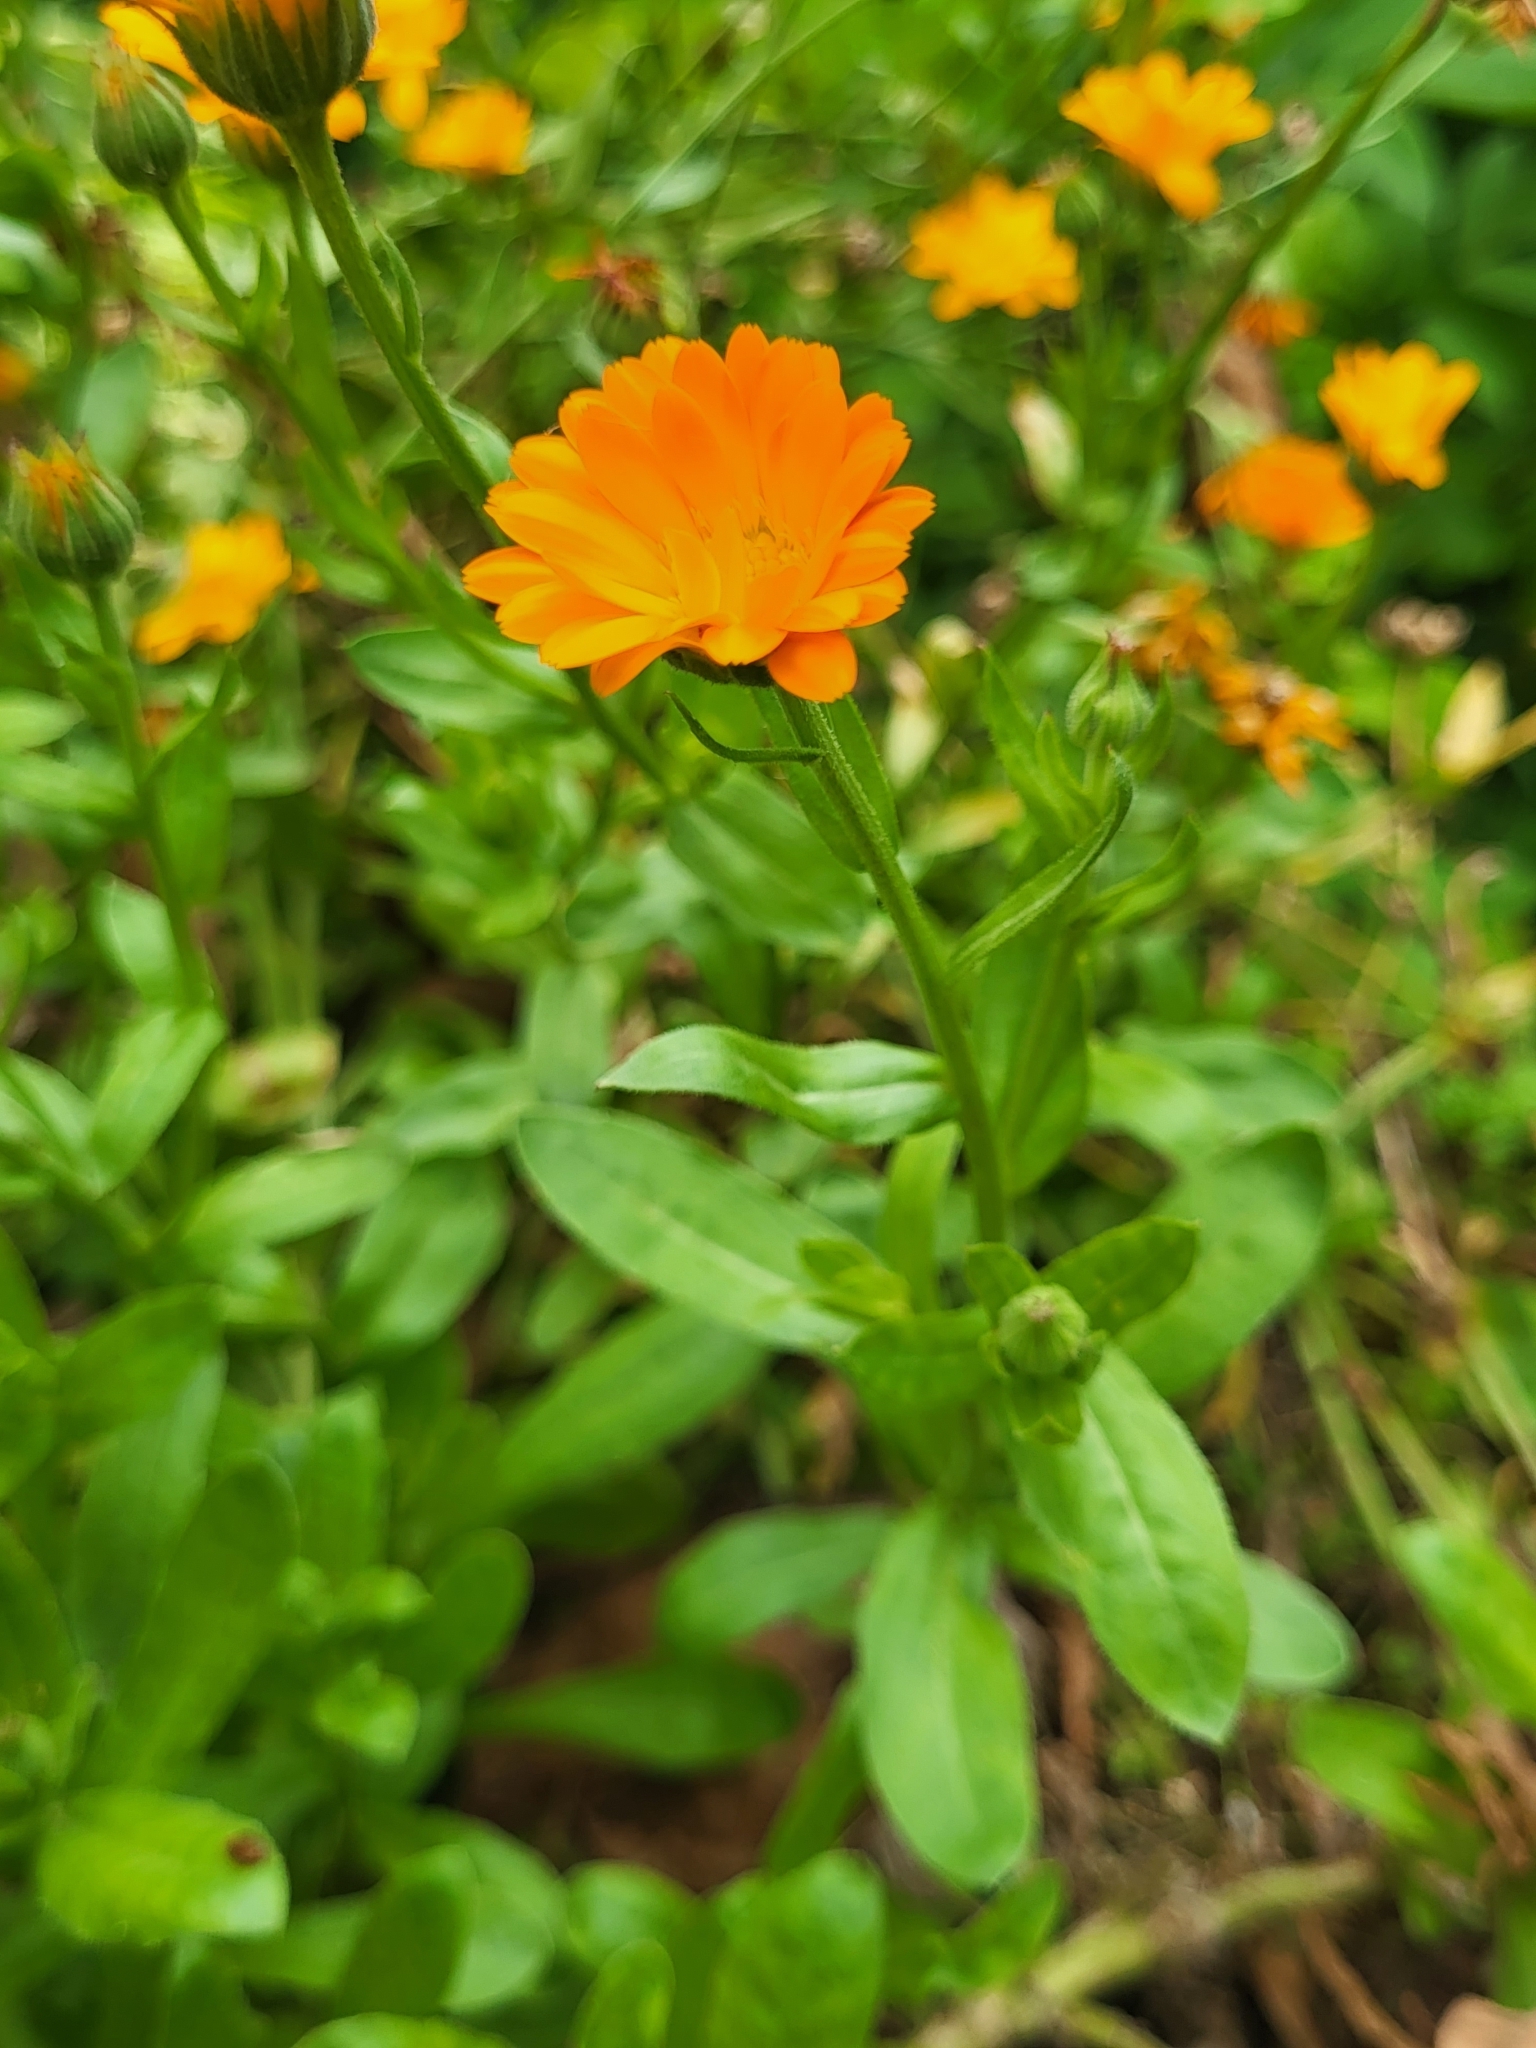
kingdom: Plantae
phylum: Tracheophyta
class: Magnoliopsida
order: Asterales
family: Asteraceae
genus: Calendula
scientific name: Calendula officinalis
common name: Pot marigold
